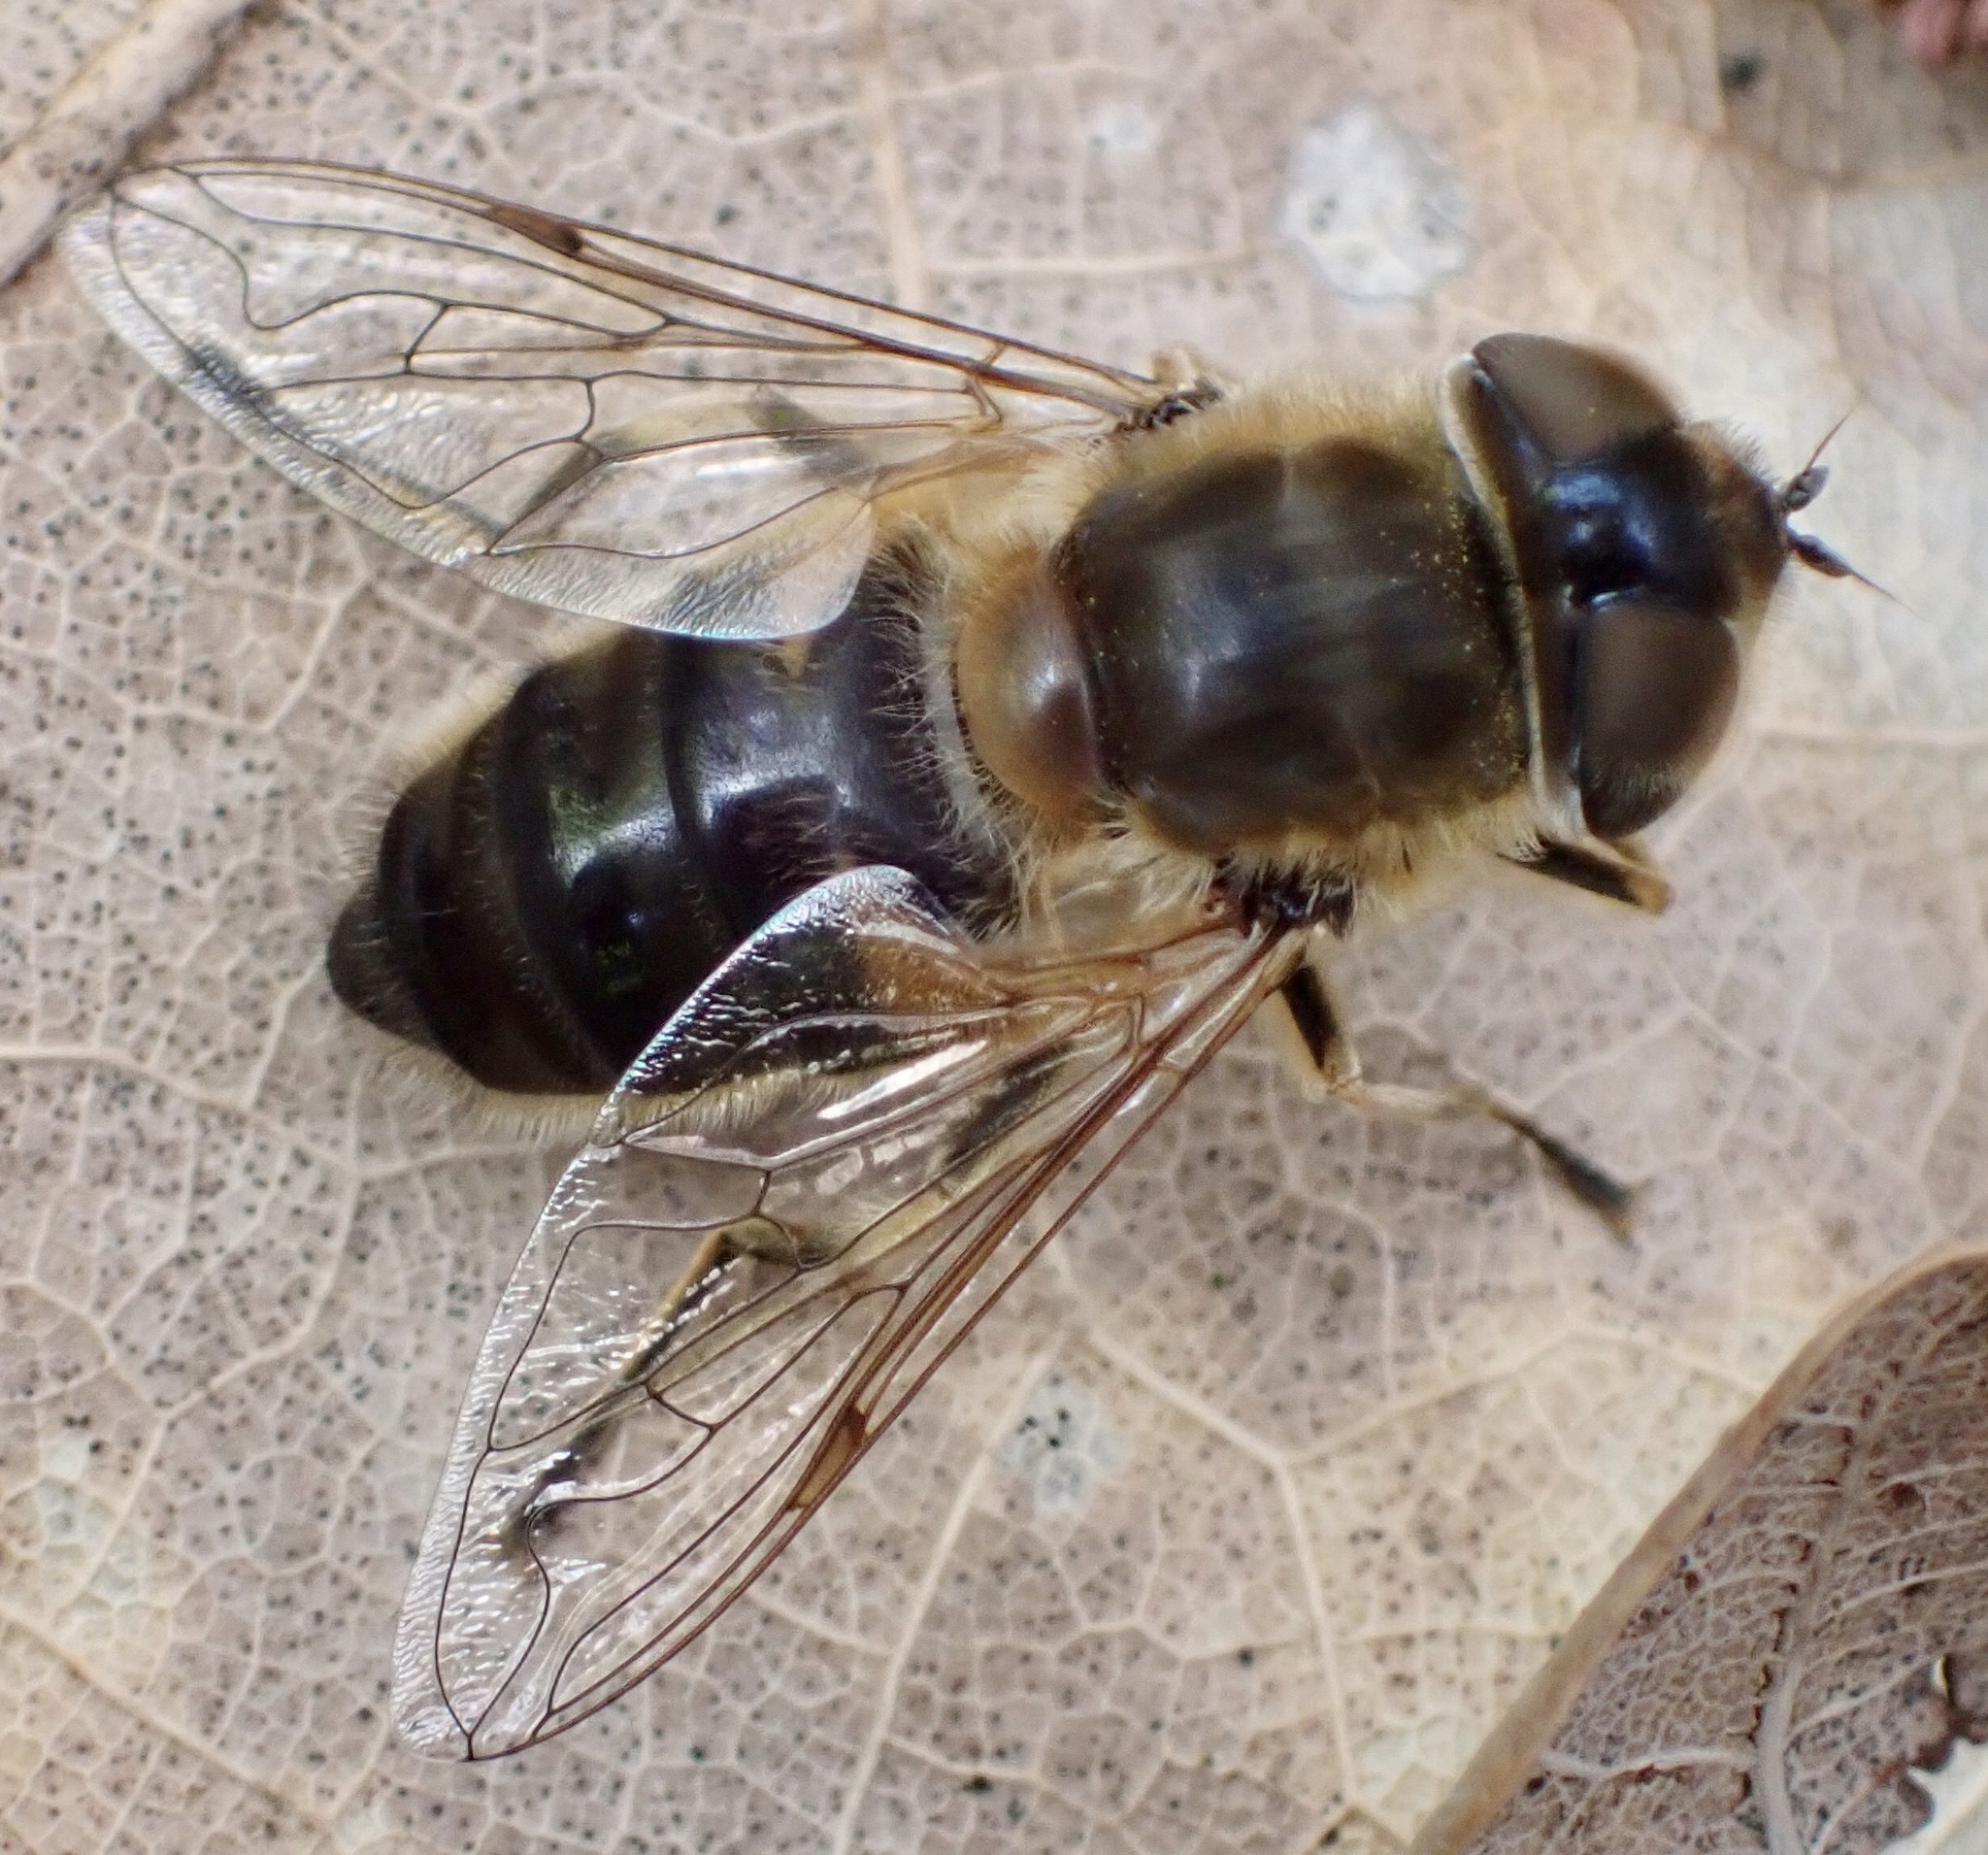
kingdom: Animalia
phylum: Arthropoda
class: Insecta
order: Diptera
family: Syrphidae
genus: Eristalis
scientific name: Eristalis pertinax
